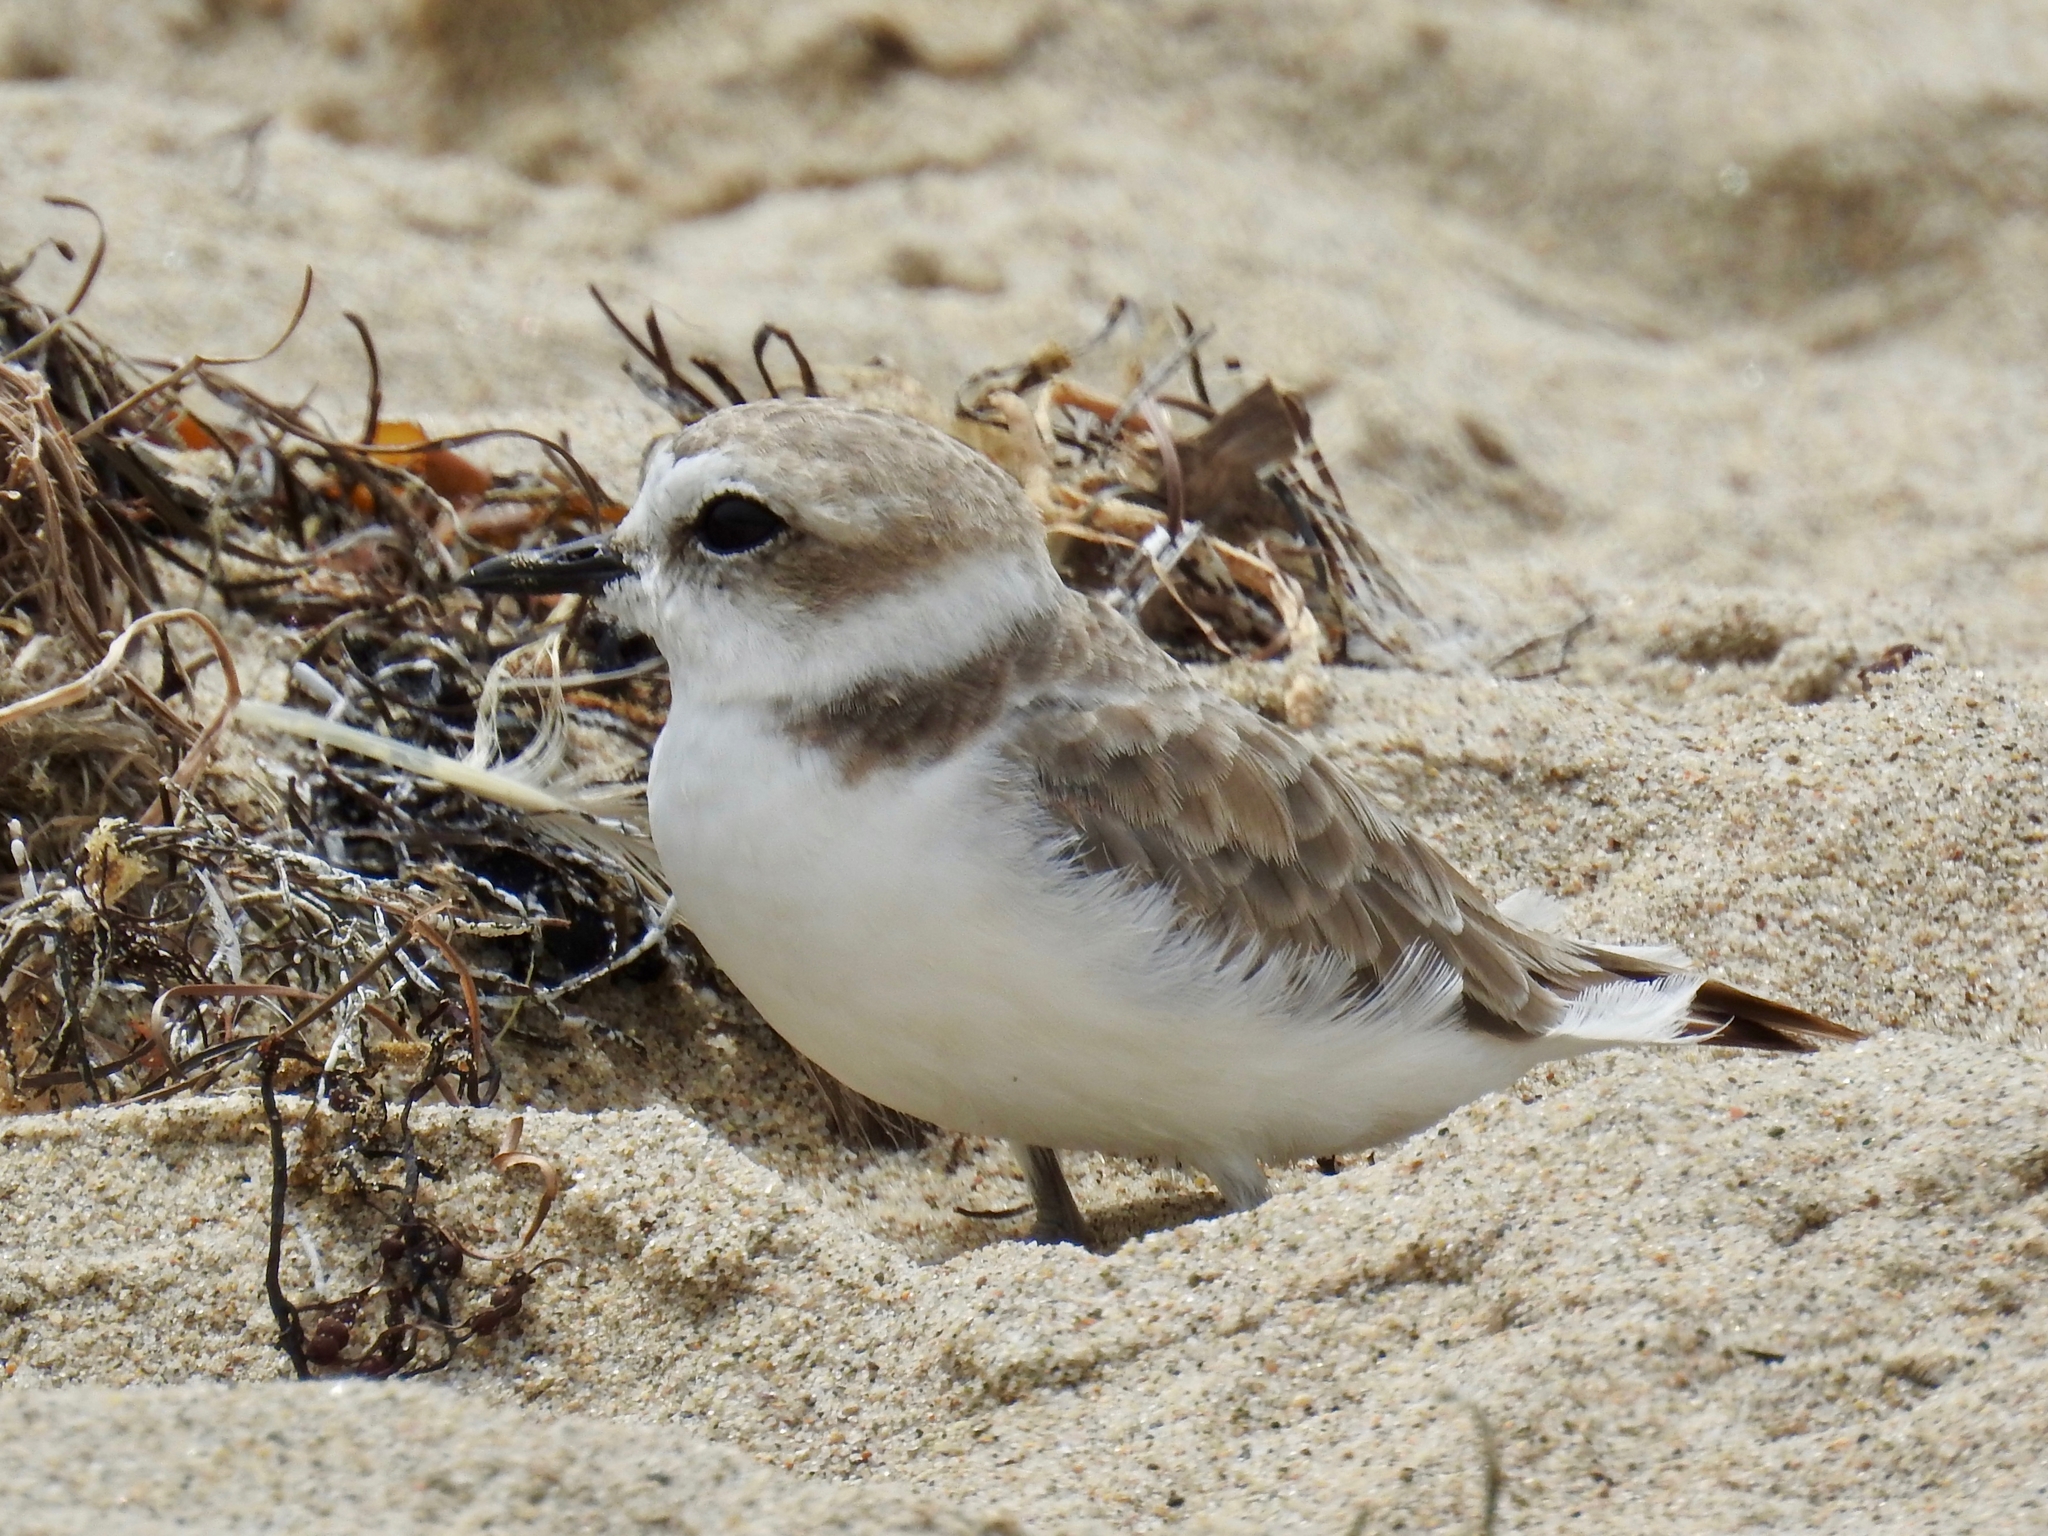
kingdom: Animalia
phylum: Chordata
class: Aves
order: Charadriiformes
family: Charadriidae
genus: Anarhynchus
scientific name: Anarhynchus
